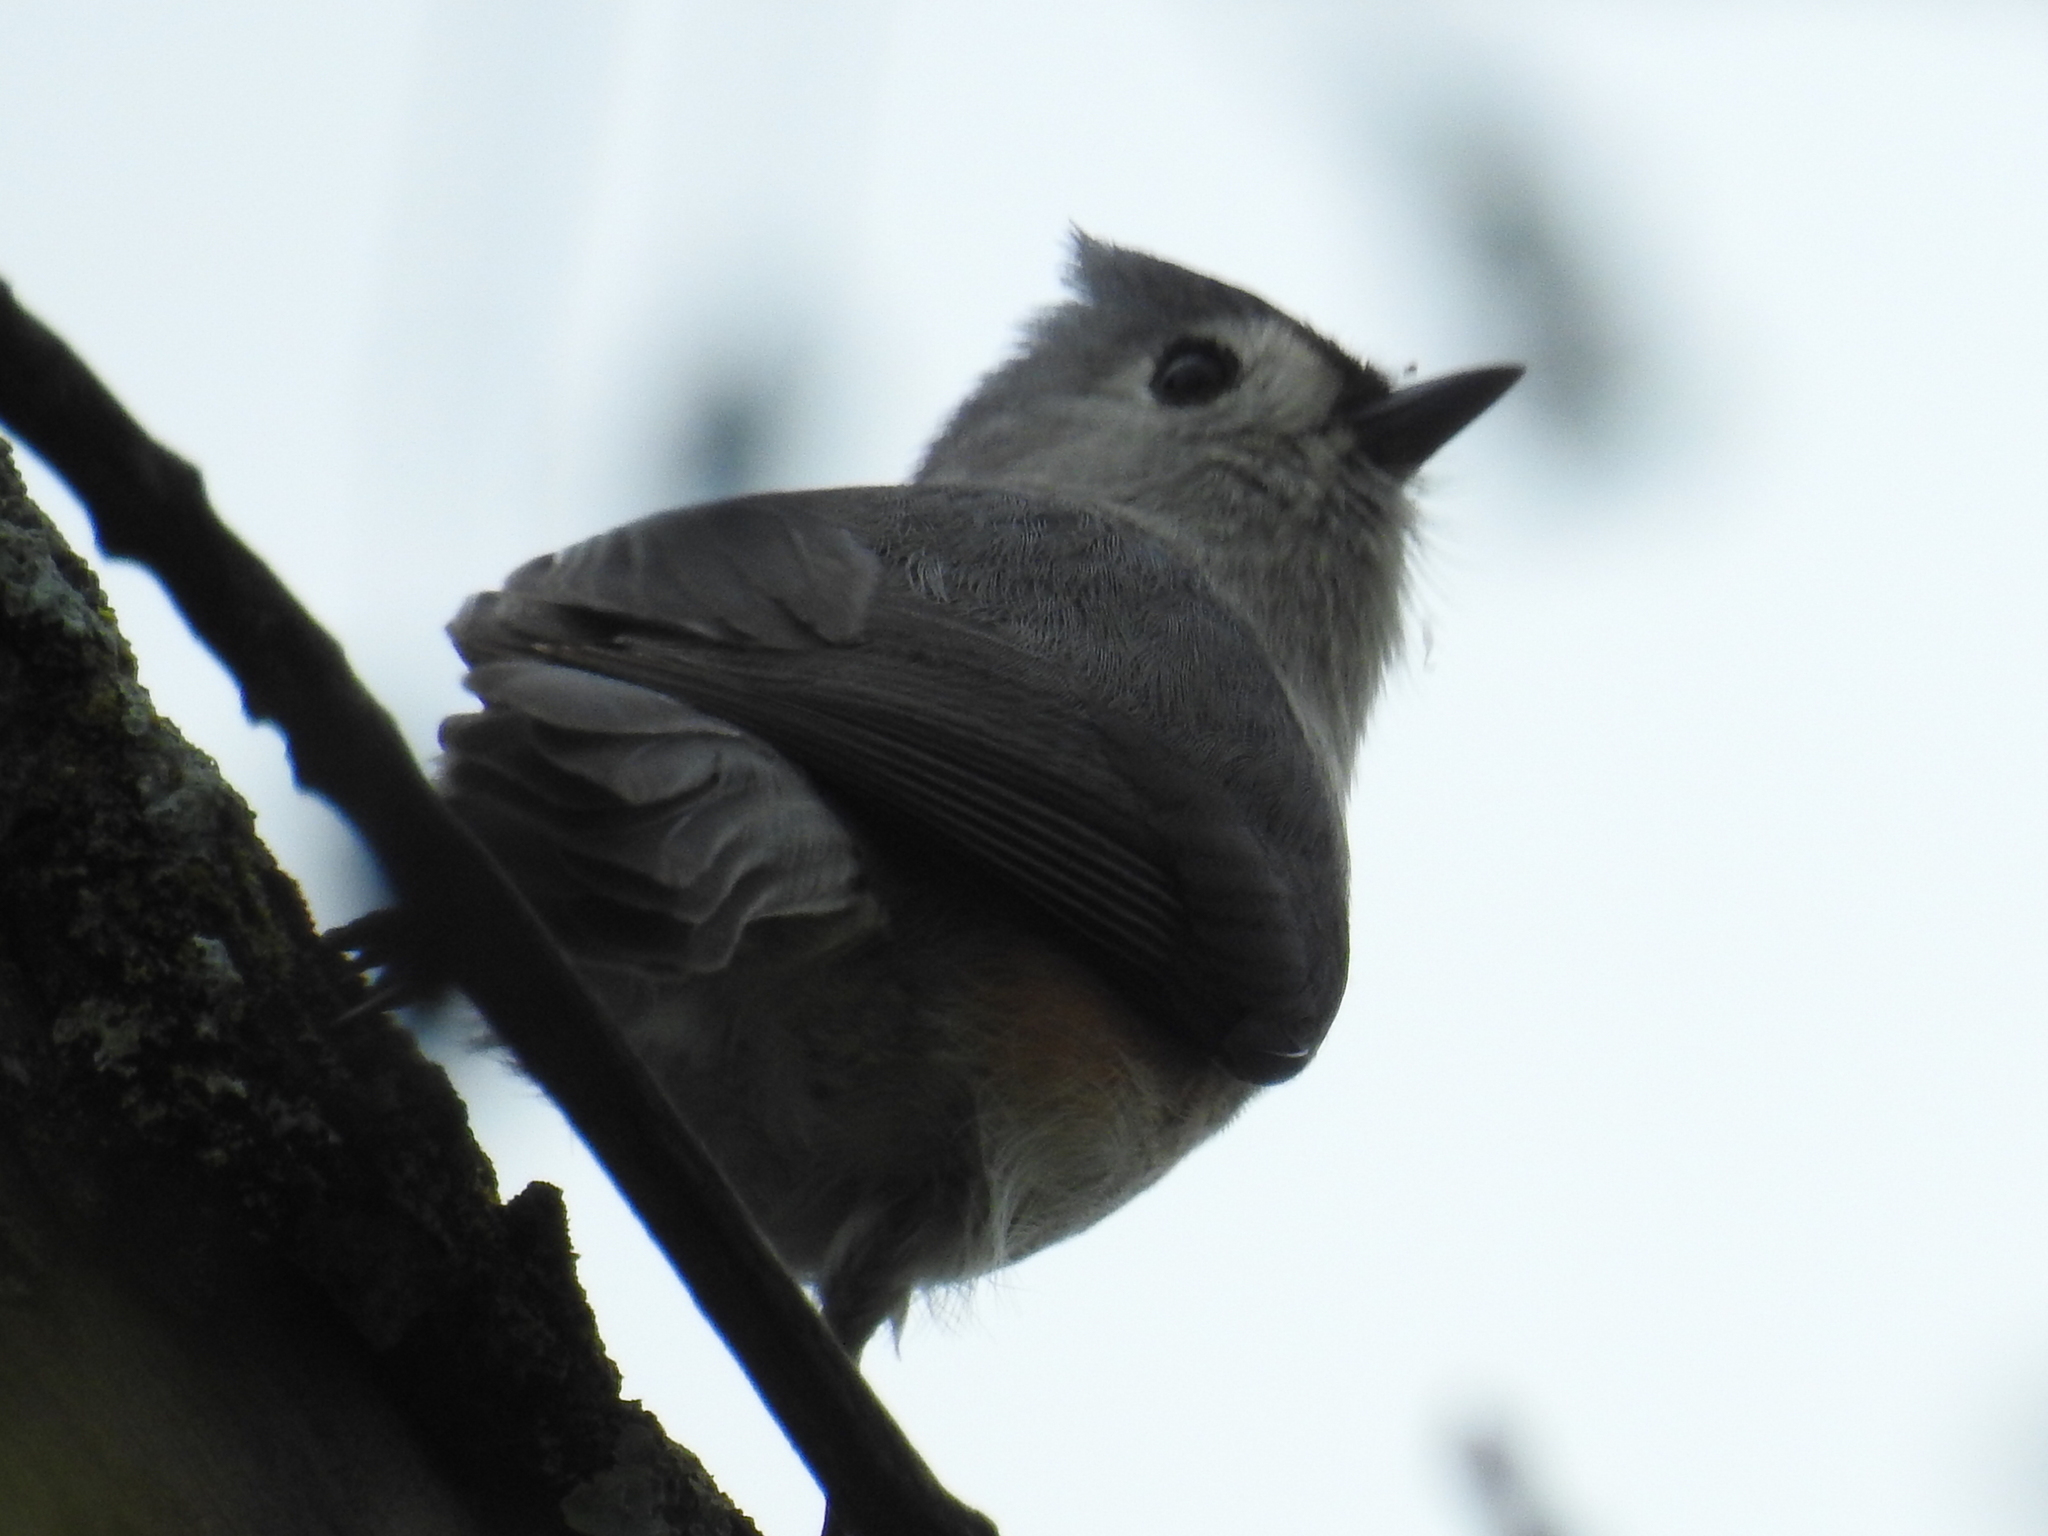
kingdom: Animalia
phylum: Chordata
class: Aves
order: Passeriformes
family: Paridae
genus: Baeolophus
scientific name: Baeolophus bicolor
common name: Tufted titmouse
